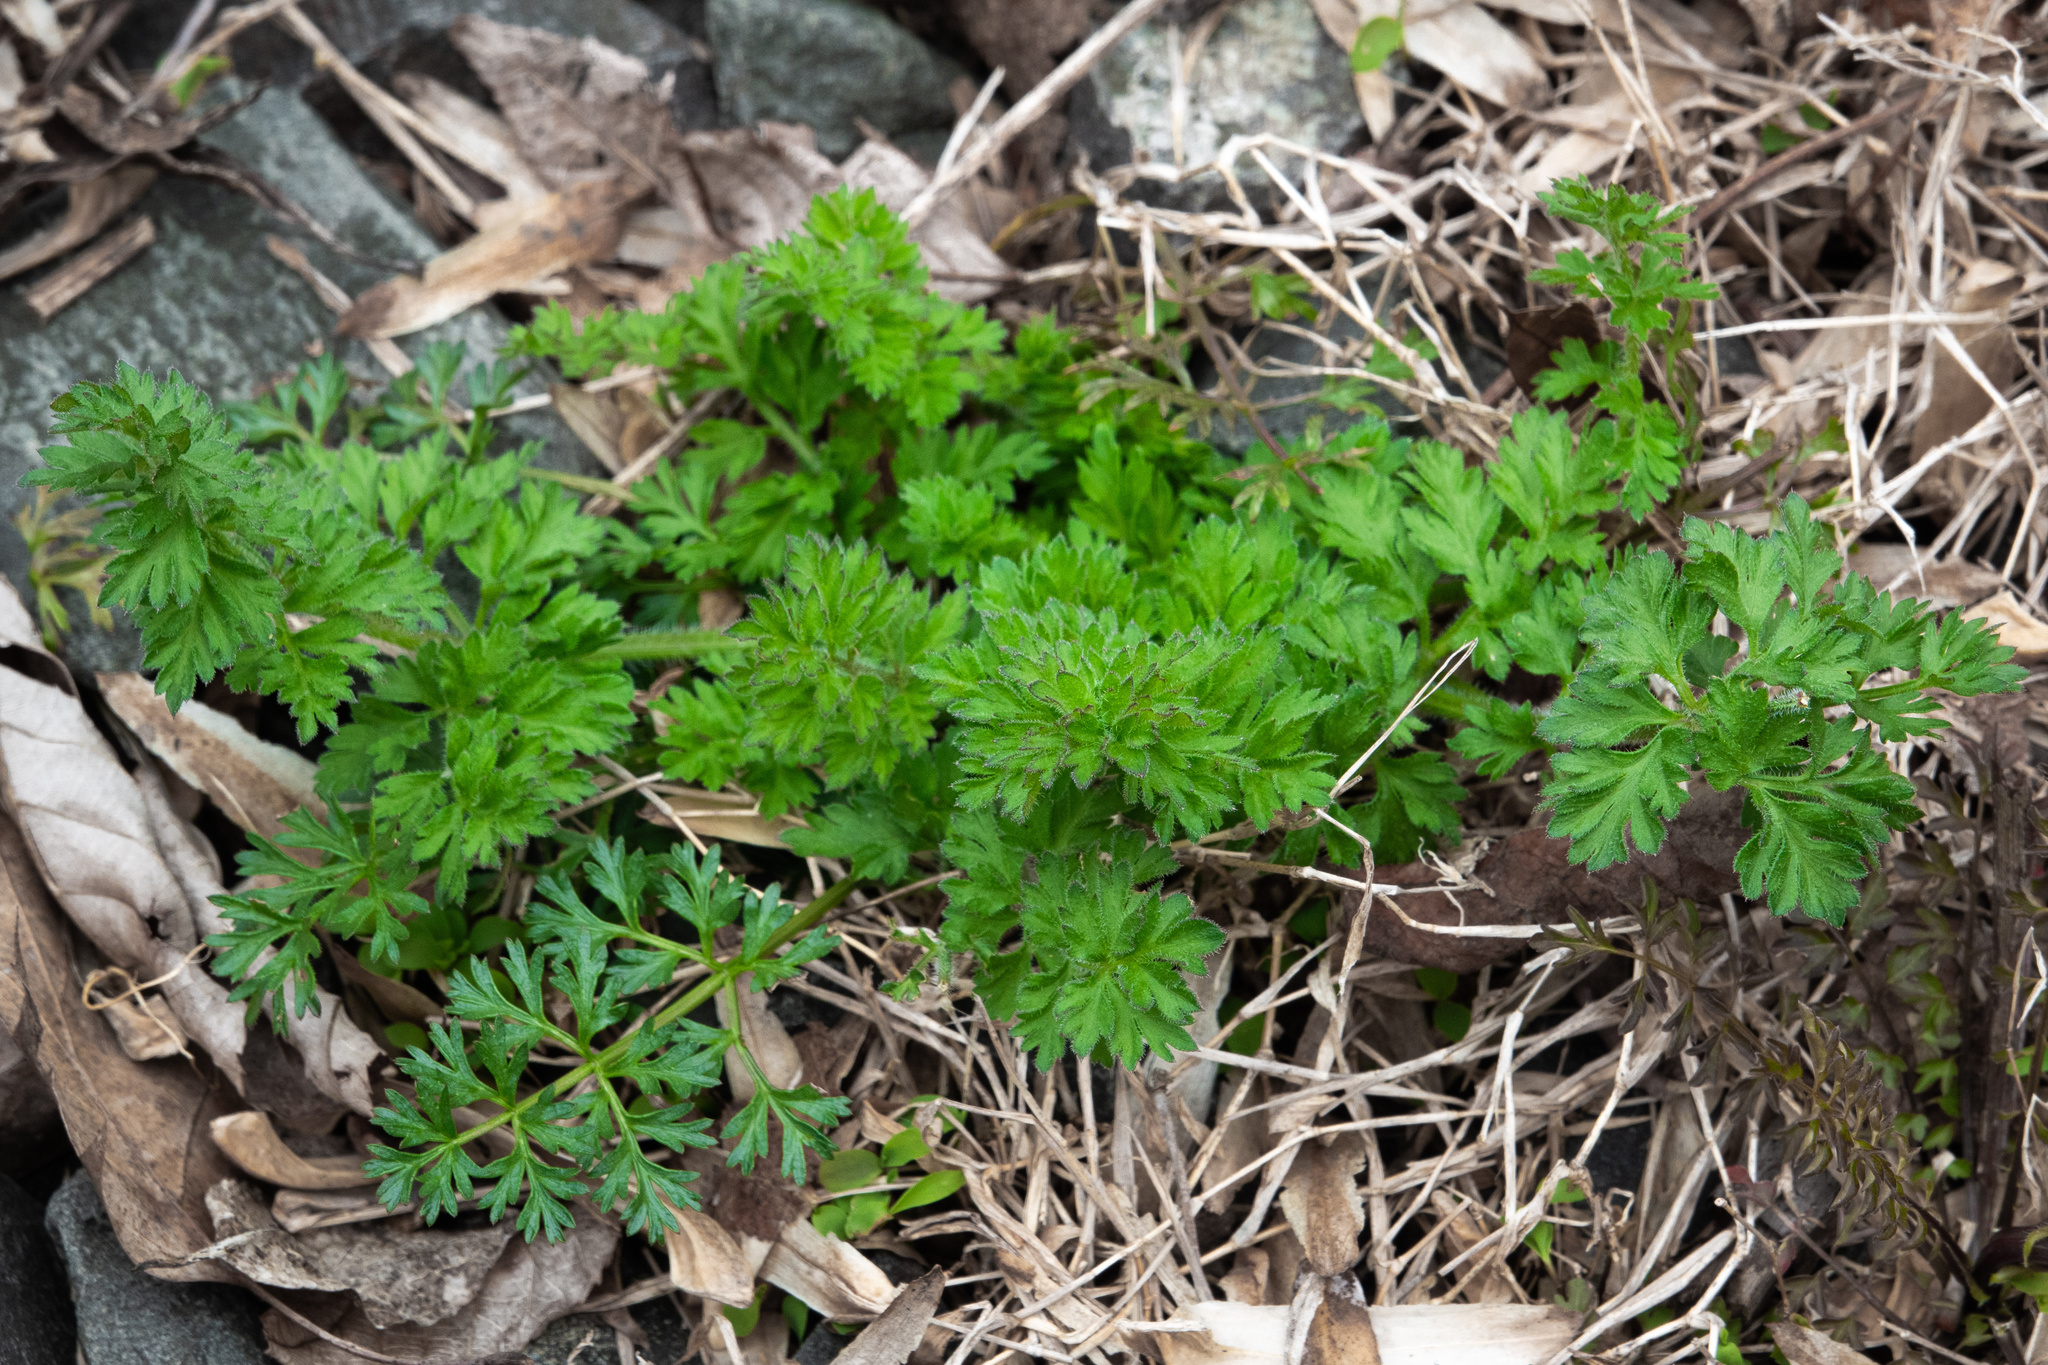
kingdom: Plantae
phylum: Tracheophyta
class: Magnoliopsida
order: Apiales
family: Apiaceae
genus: Daucus
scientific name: Daucus carota
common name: Wild carrot
